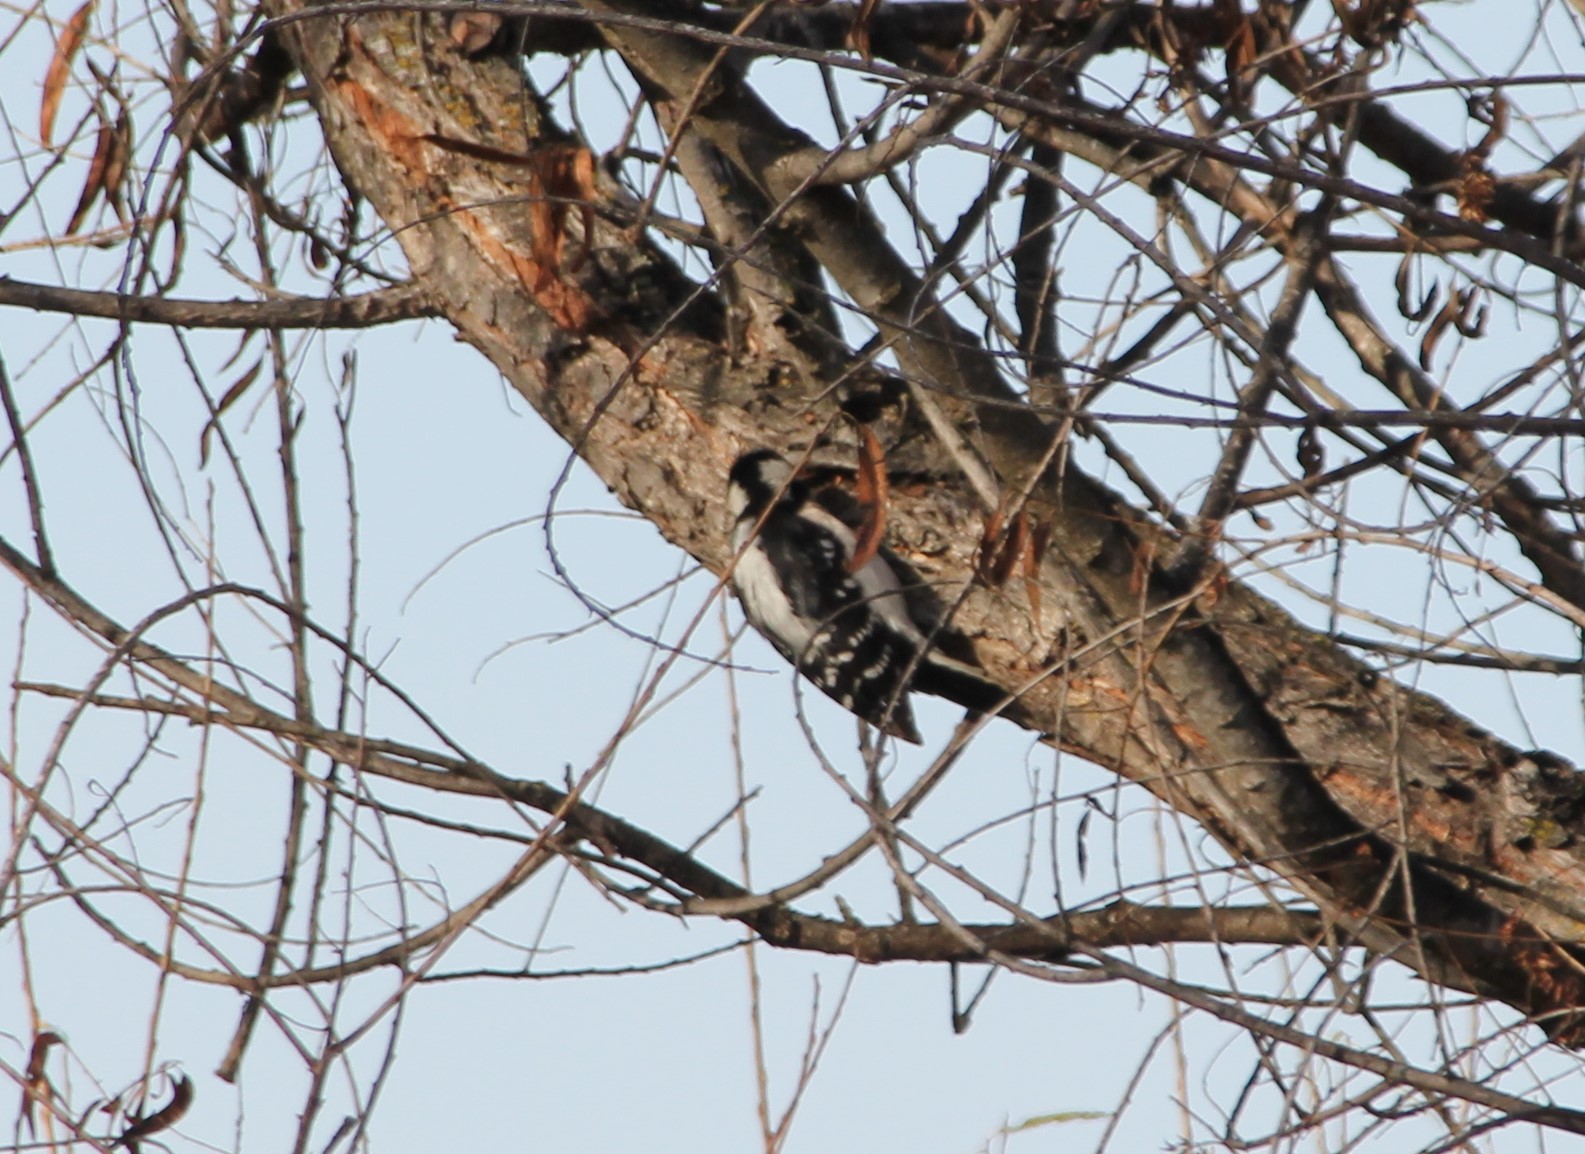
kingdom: Animalia
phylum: Chordata
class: Aves
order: Piciformes
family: Picidae
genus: Dryobates
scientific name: Dryobates pubescens
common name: Downy woodpecker
